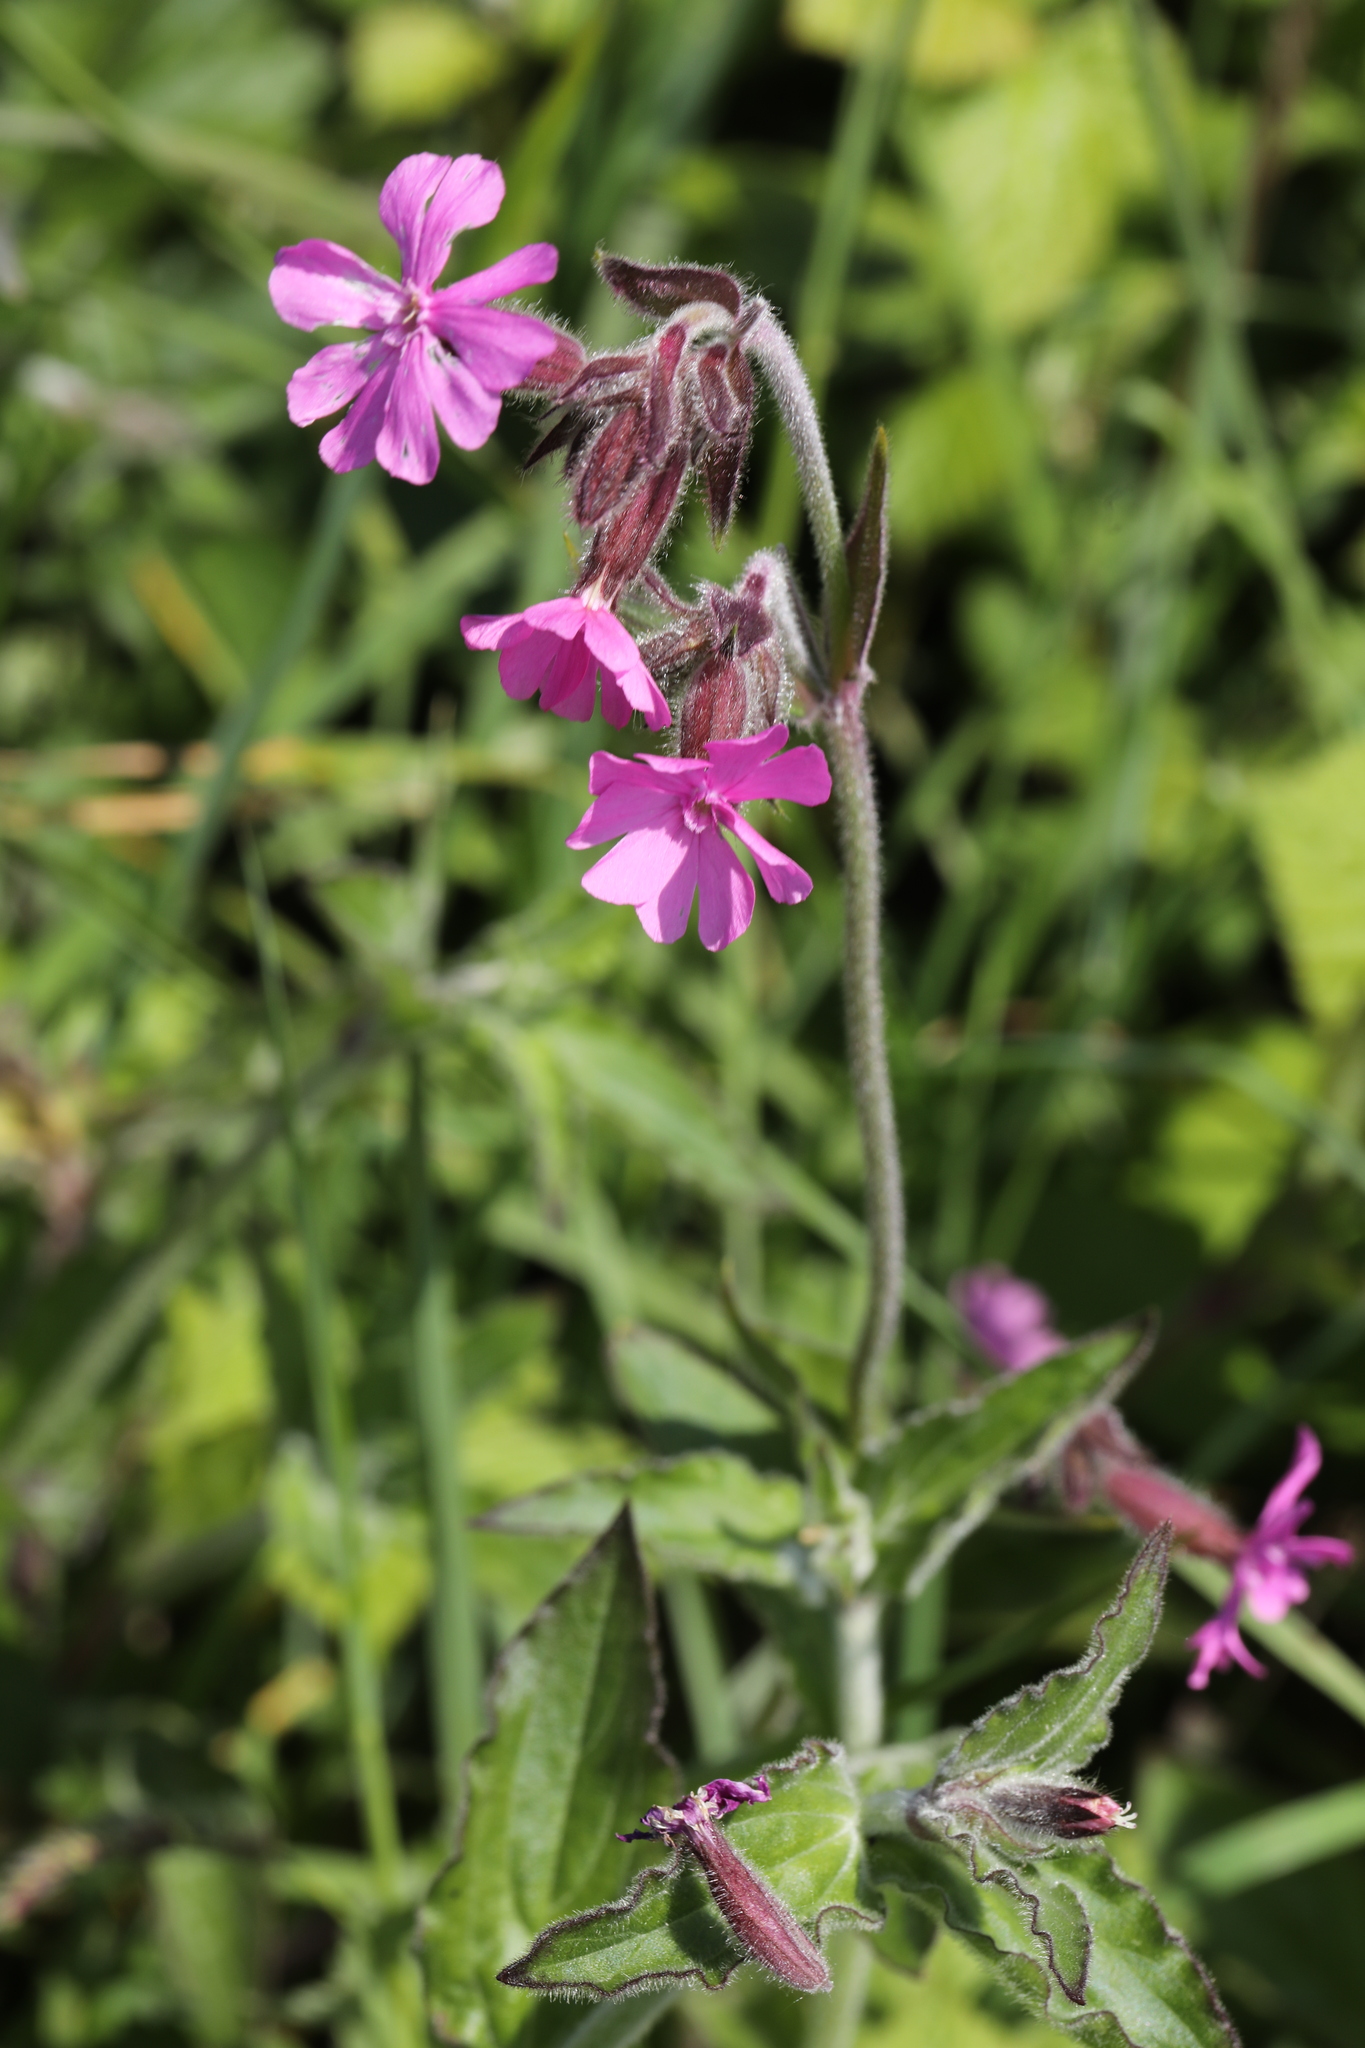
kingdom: Plantae
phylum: Tracheophyta
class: Magnoliopsida
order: Caryophyllales
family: Caryophyllaceae
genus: Silene
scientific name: Silene dioica
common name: Red campion
